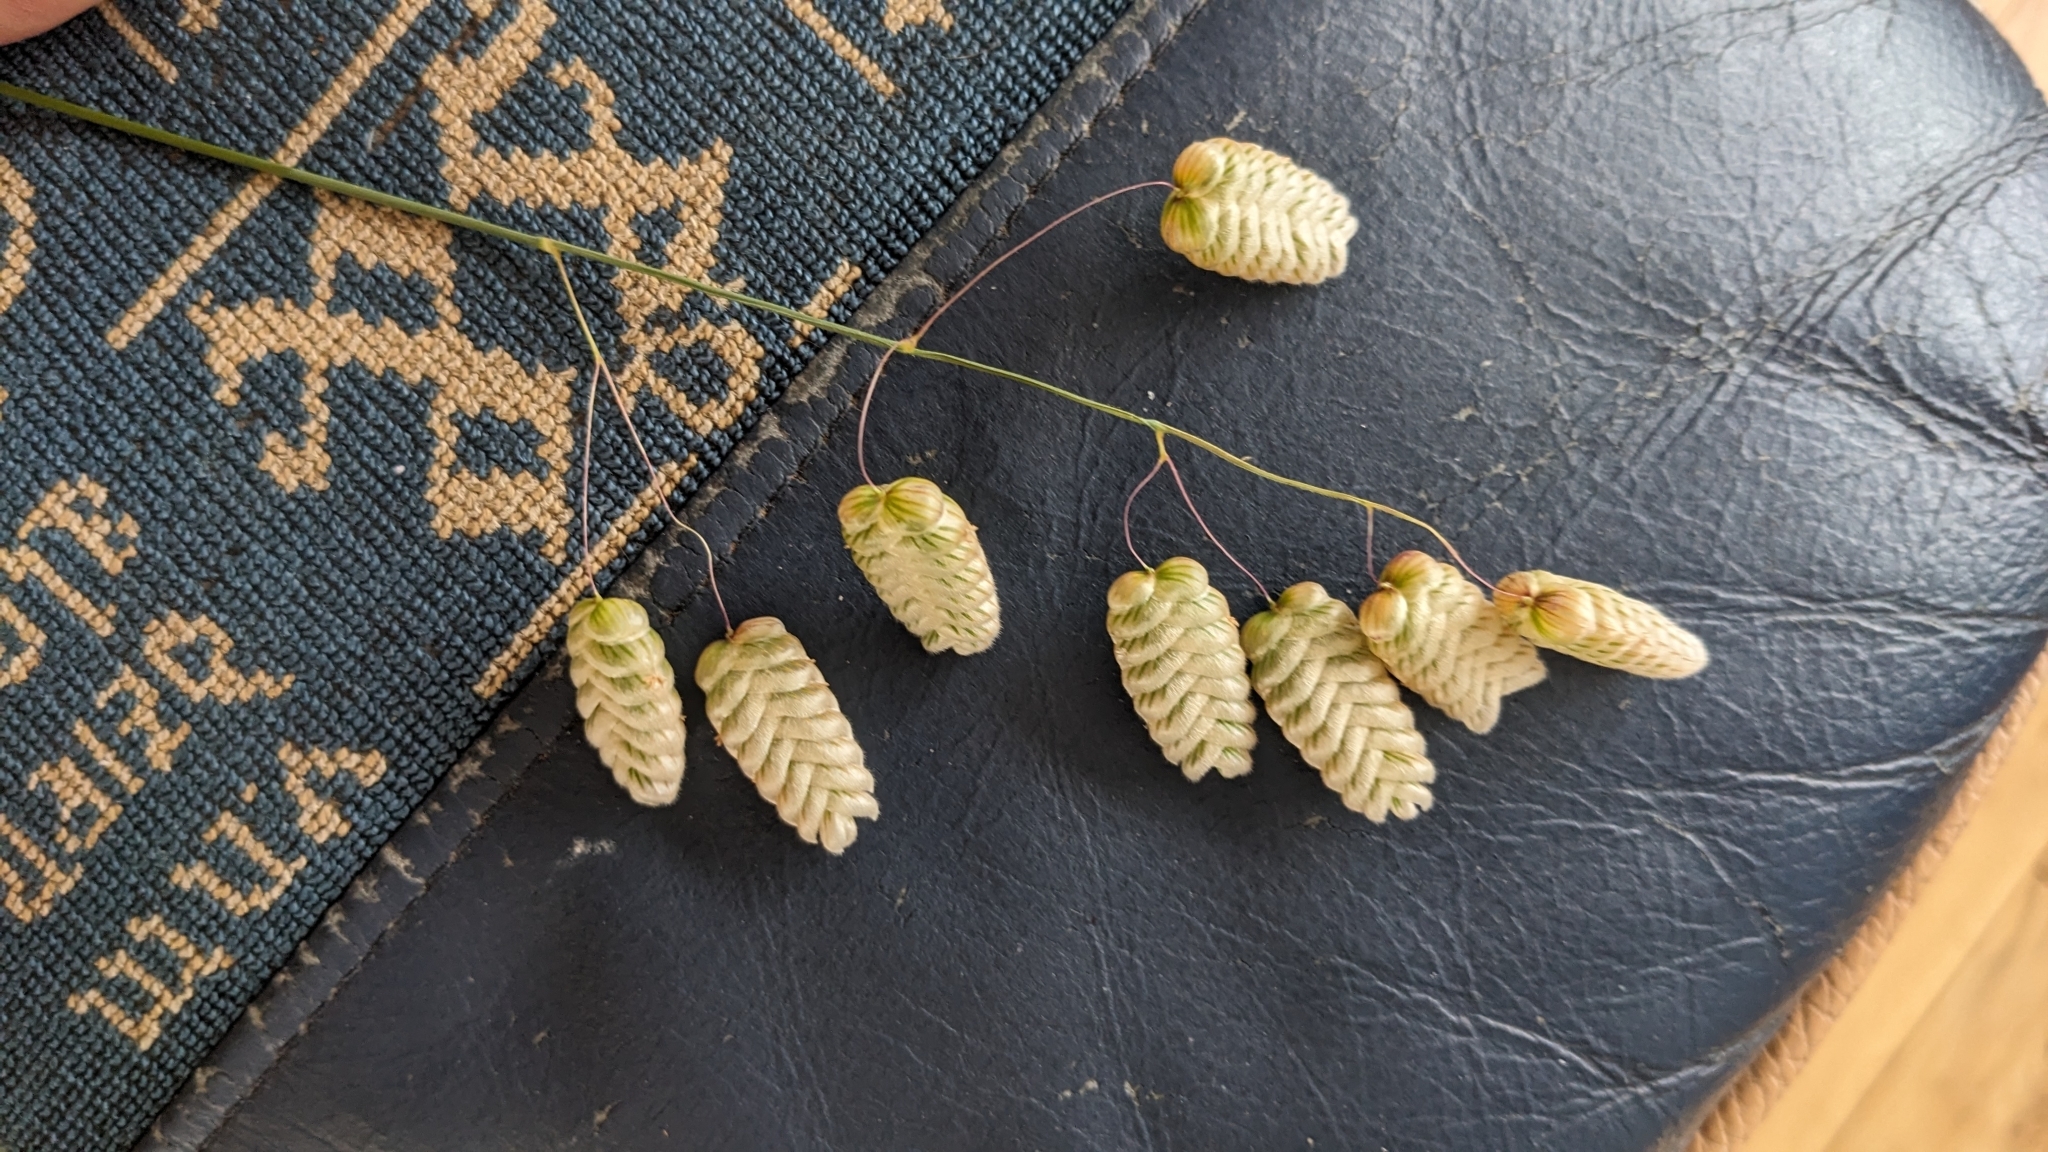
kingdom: Plantae
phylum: Tracheophyta
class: Liliopsida
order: Poales
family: Poaceae
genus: Briza
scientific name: Briza maxima
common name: Big quakinggrass
